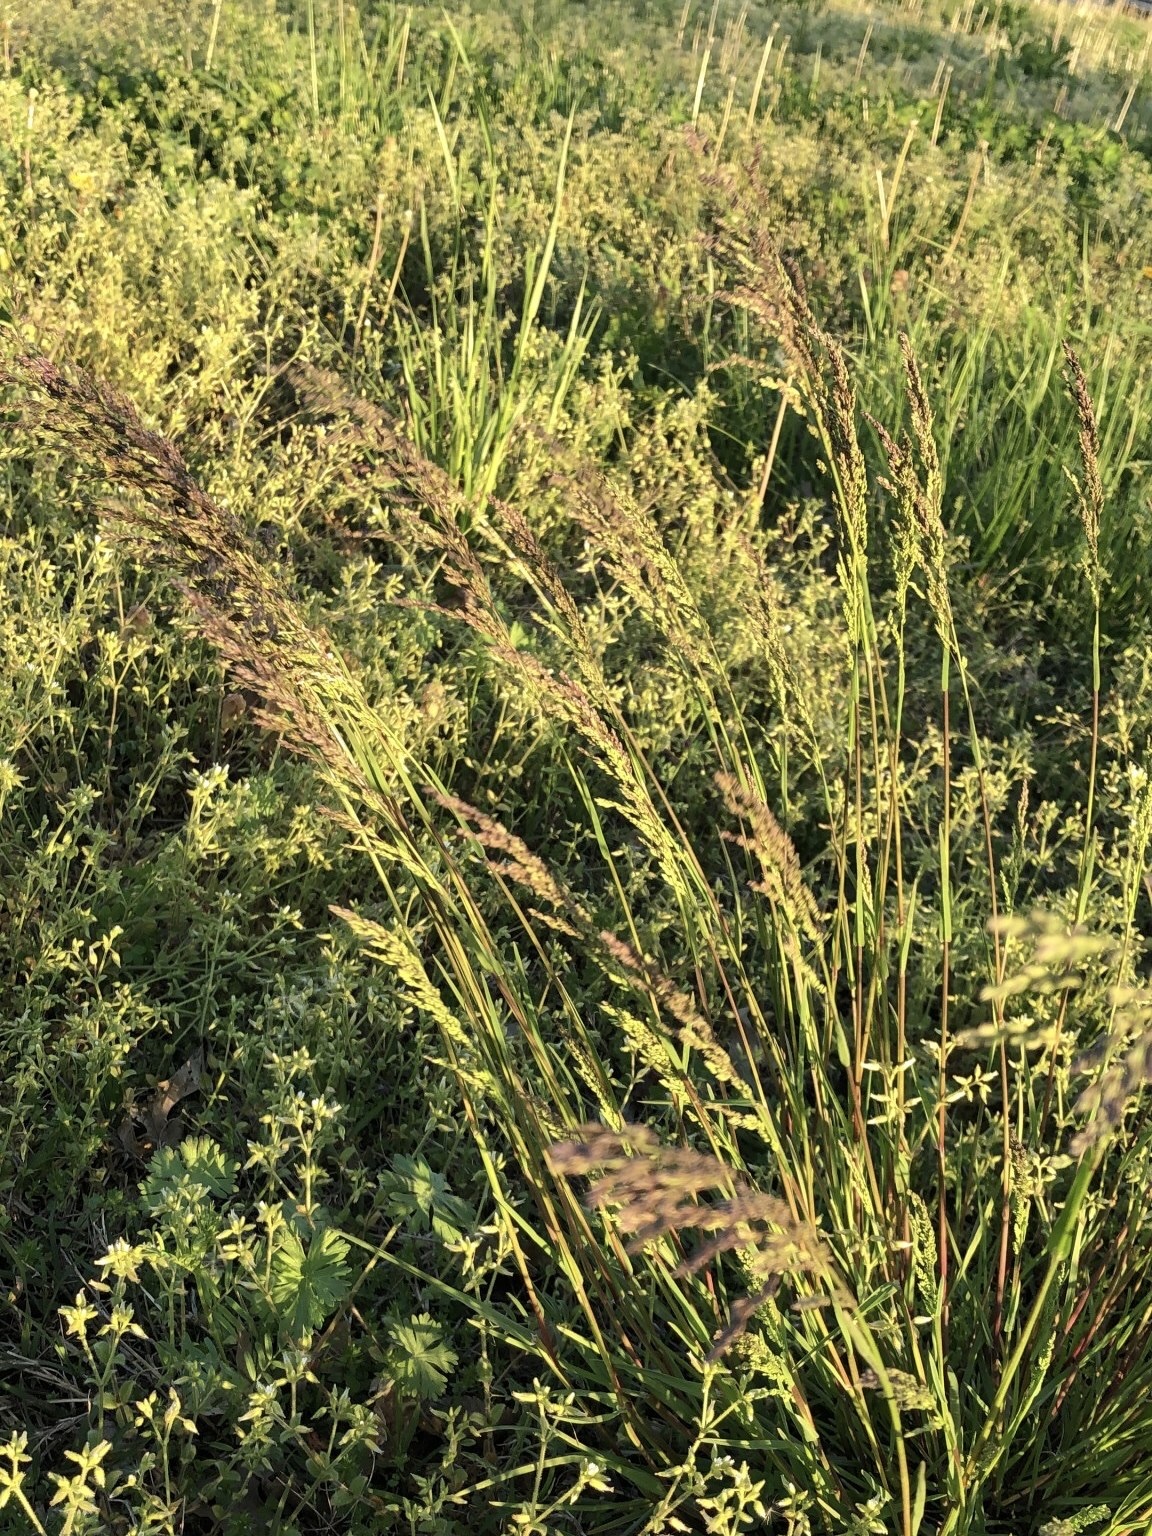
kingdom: Plantae
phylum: Tracheophyta
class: Liliopsida
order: Poales
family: Poaceae
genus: Sorghastrum
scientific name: Sorghastrum nutans
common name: Indian grass
